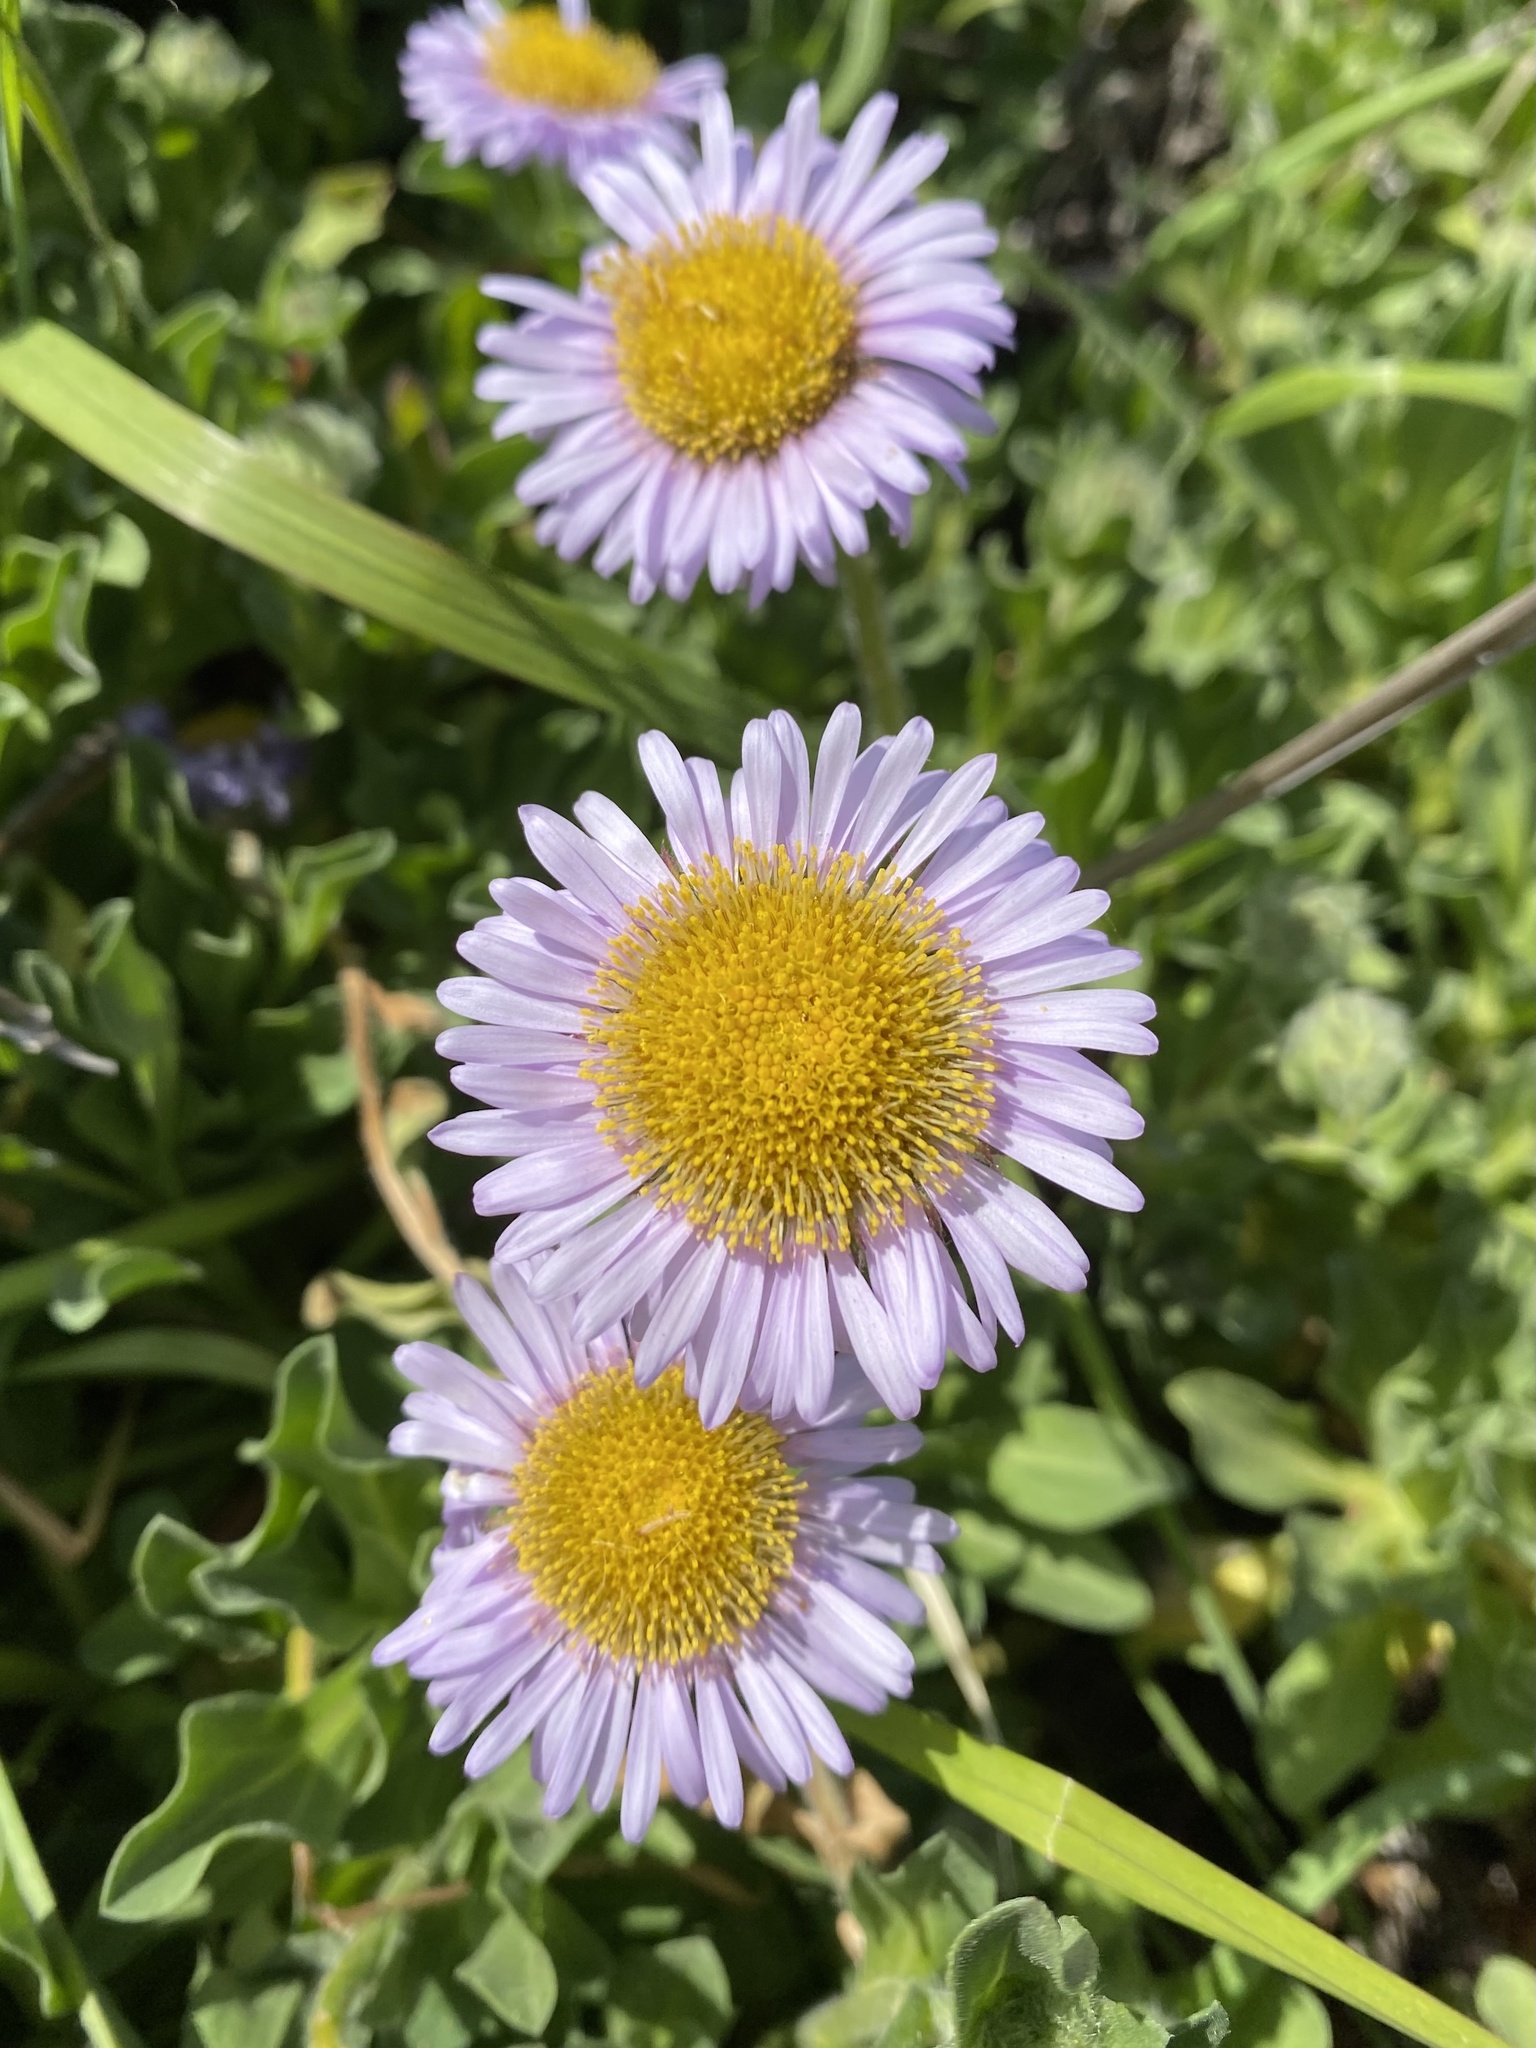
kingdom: Plantae
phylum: Tracheophyta
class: Magnoliopsida
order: Asterales
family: Asteraceae
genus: Erigeron
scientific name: Erigeron glaucus
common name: Seaside daisy
